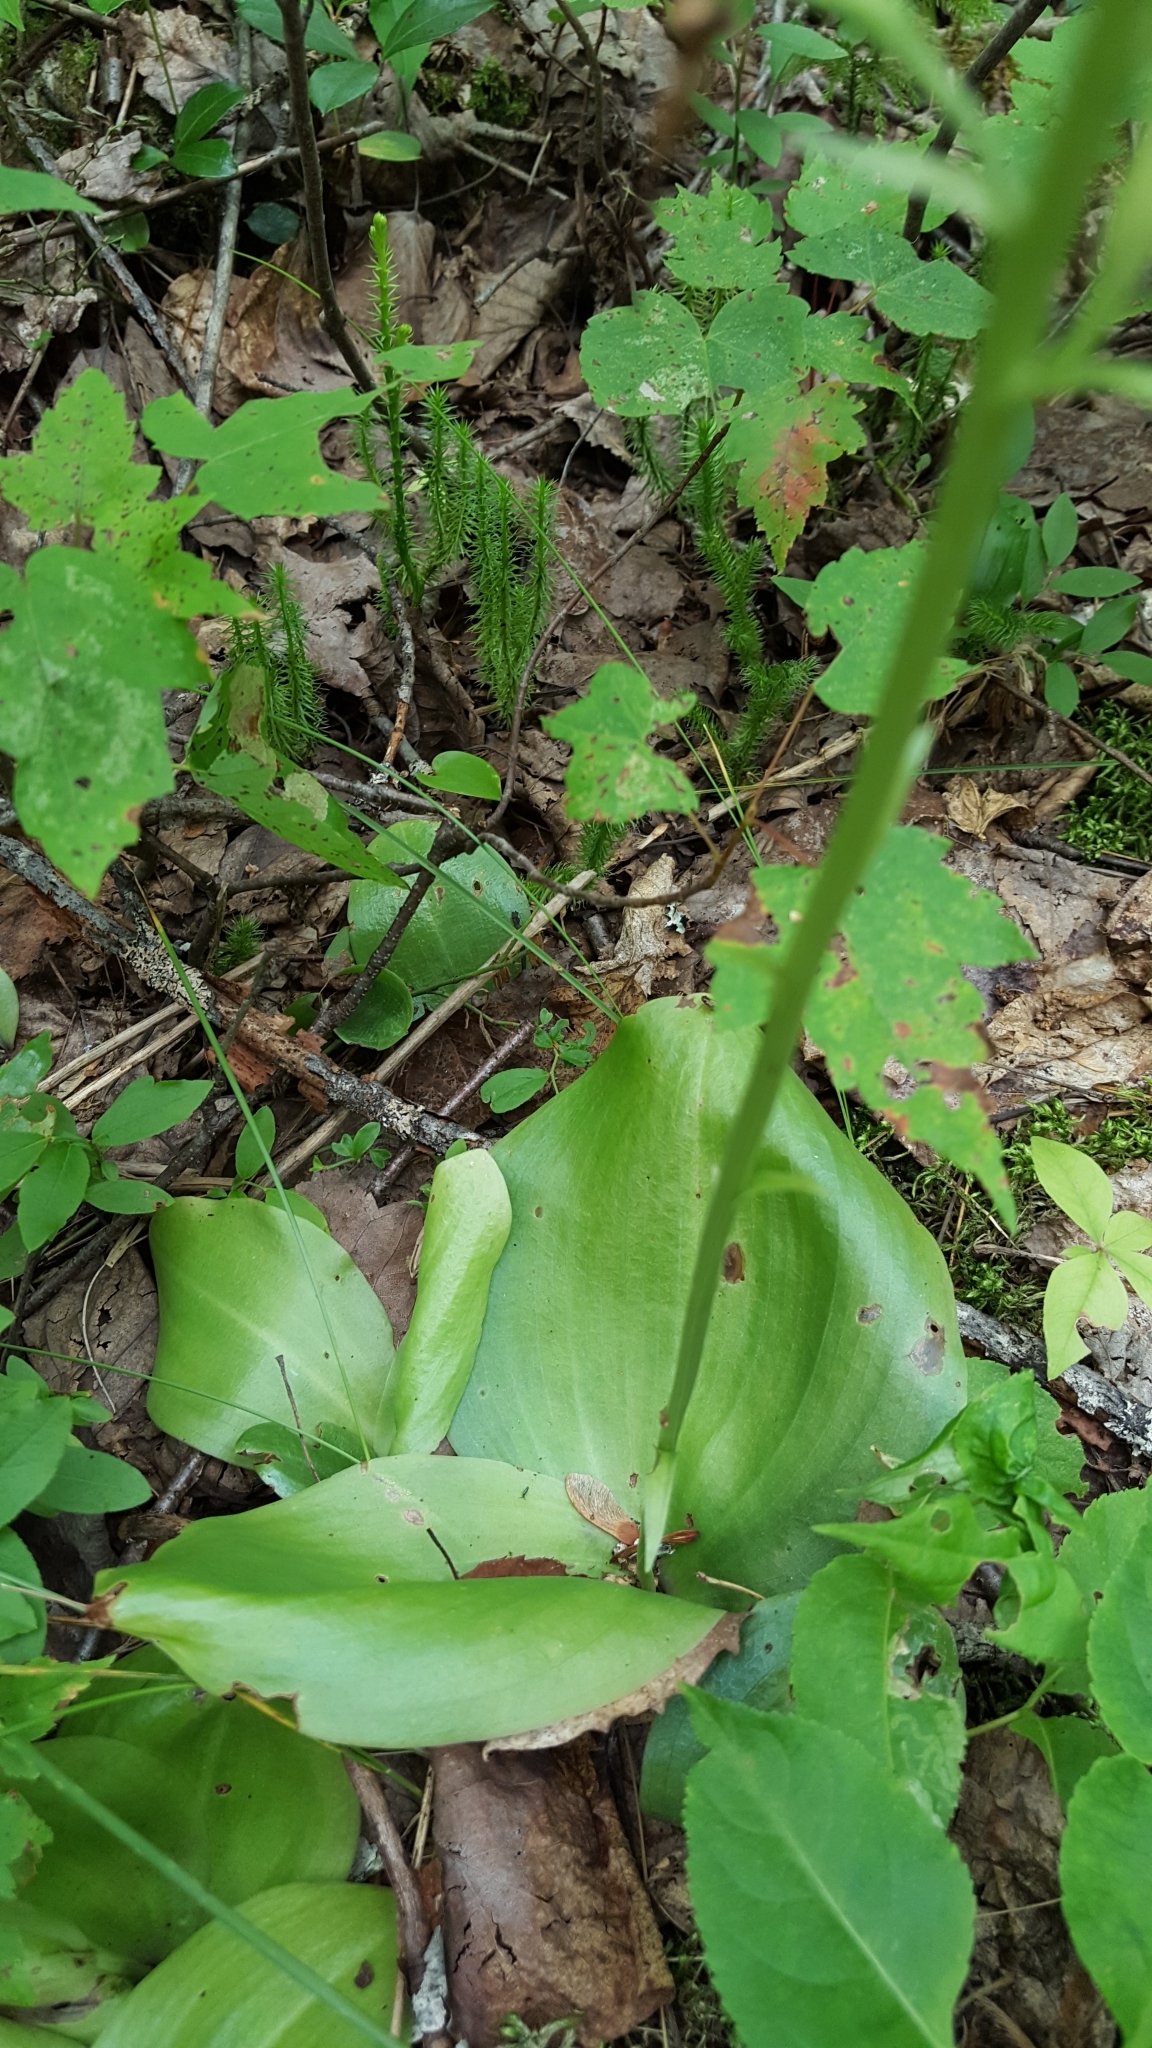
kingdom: Plantae
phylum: Tracheophyta
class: Liliopsida
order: Asparagales
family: Orchidaceae
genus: Platanthera
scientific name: Platanthera orbiculata
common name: Large round-leaved orchid
